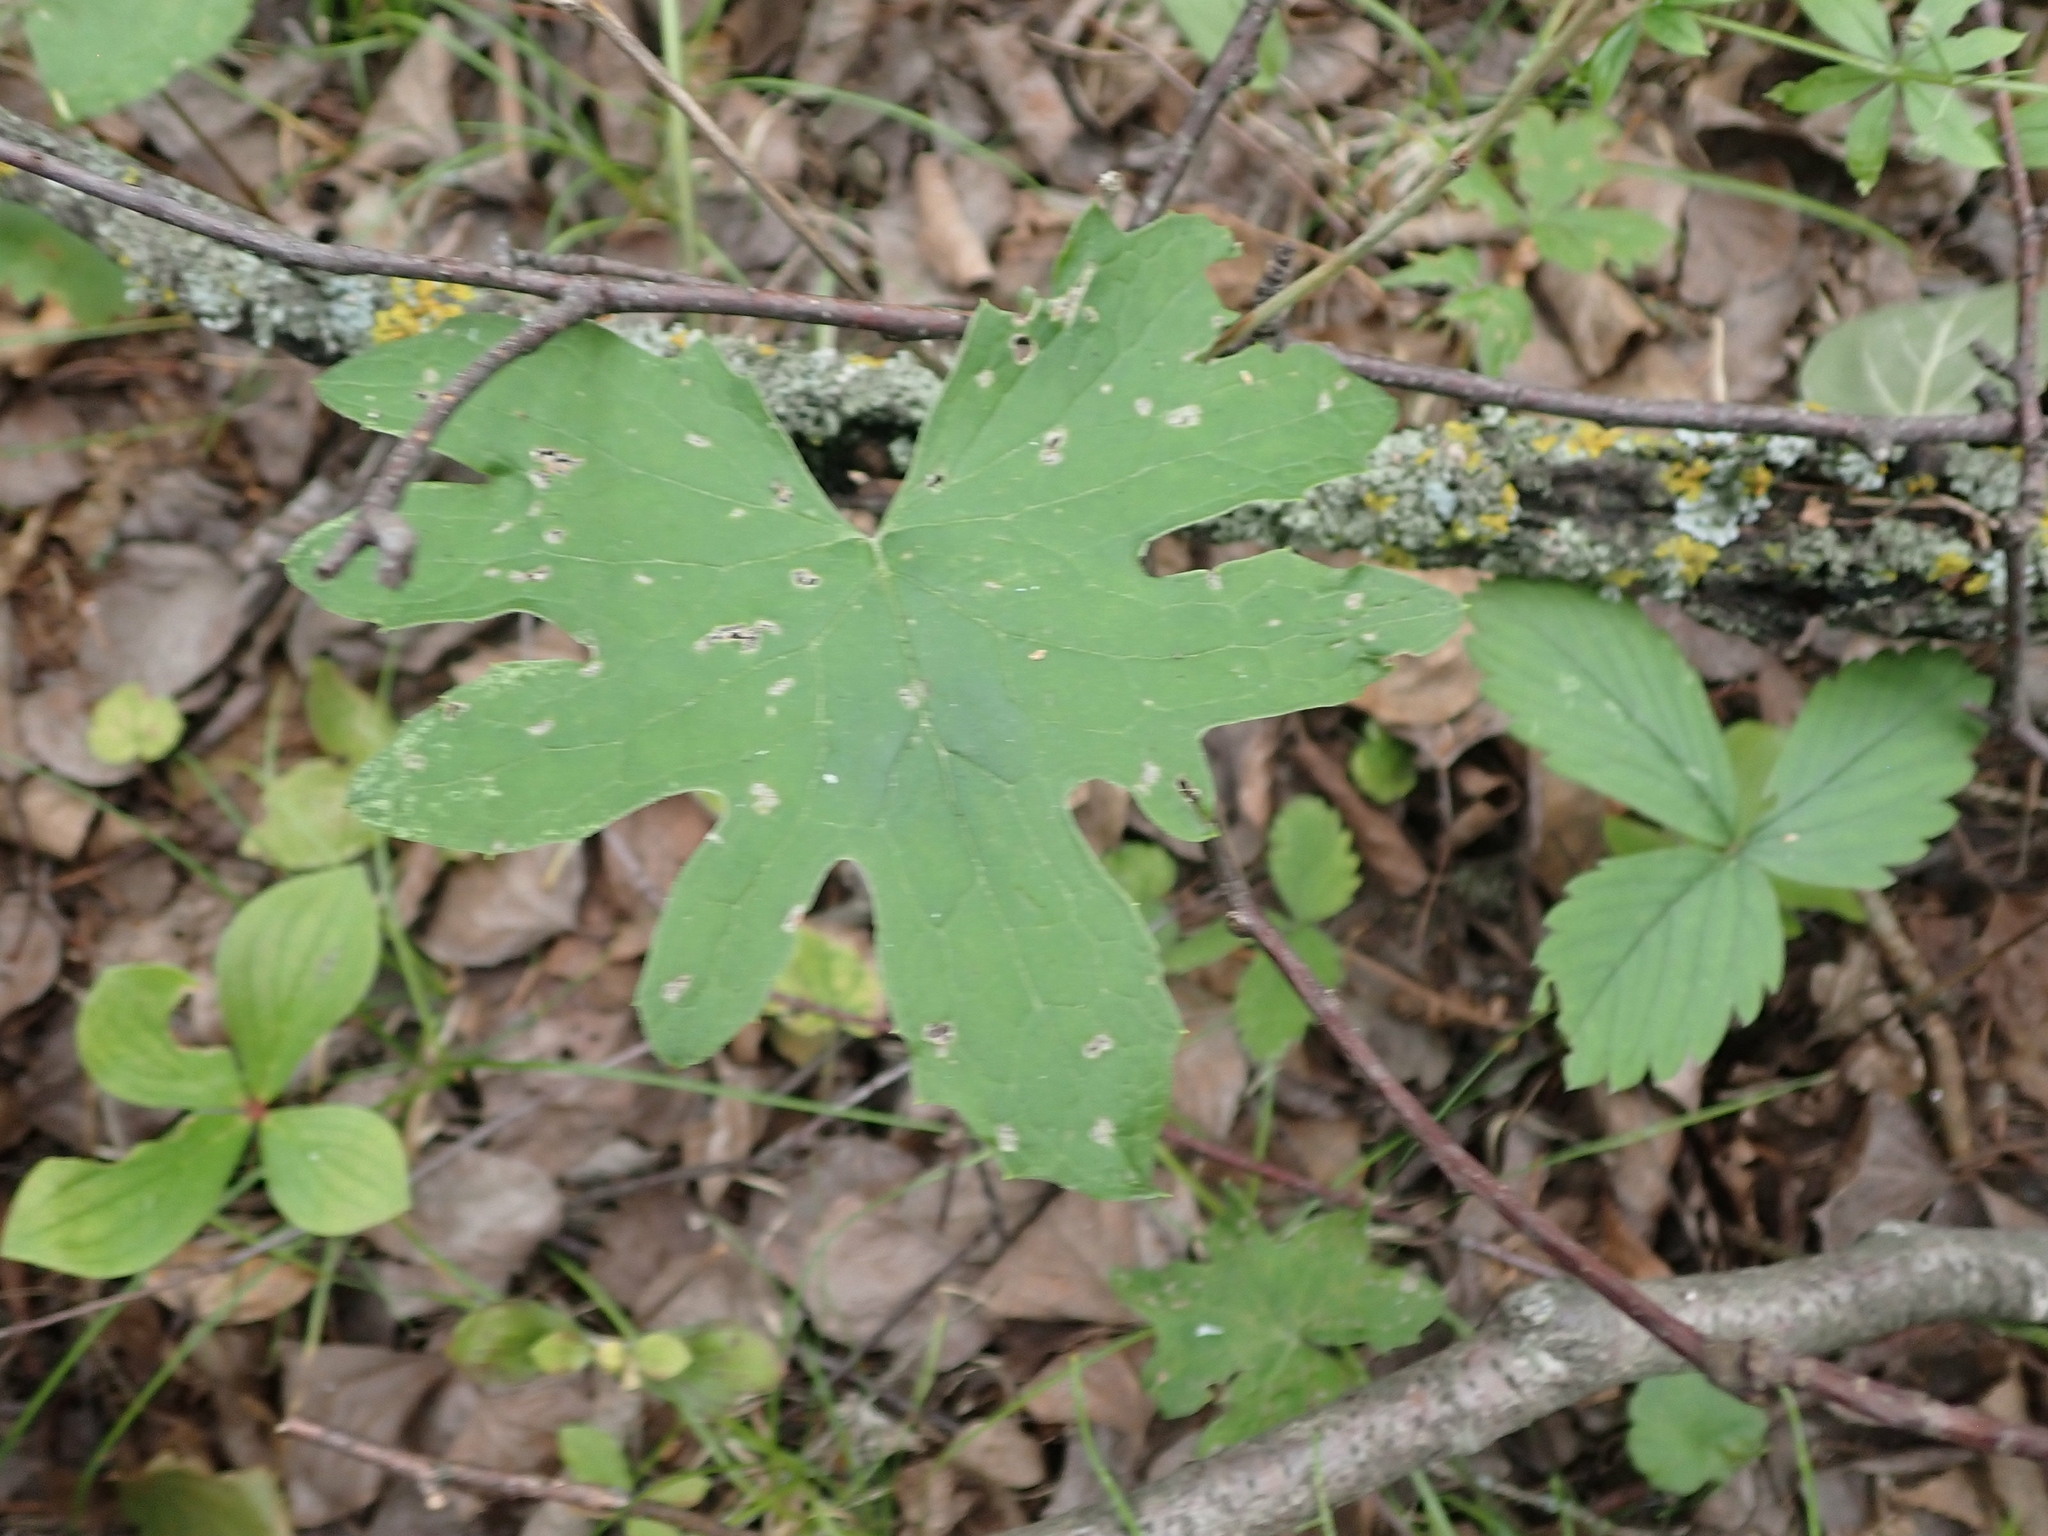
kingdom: Plantae
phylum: Tracheophyta
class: Magnoliopsida
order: Asterales
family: Asteraceae
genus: Nabalus
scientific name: Nabalus albus
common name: White rattlesnakeroot
